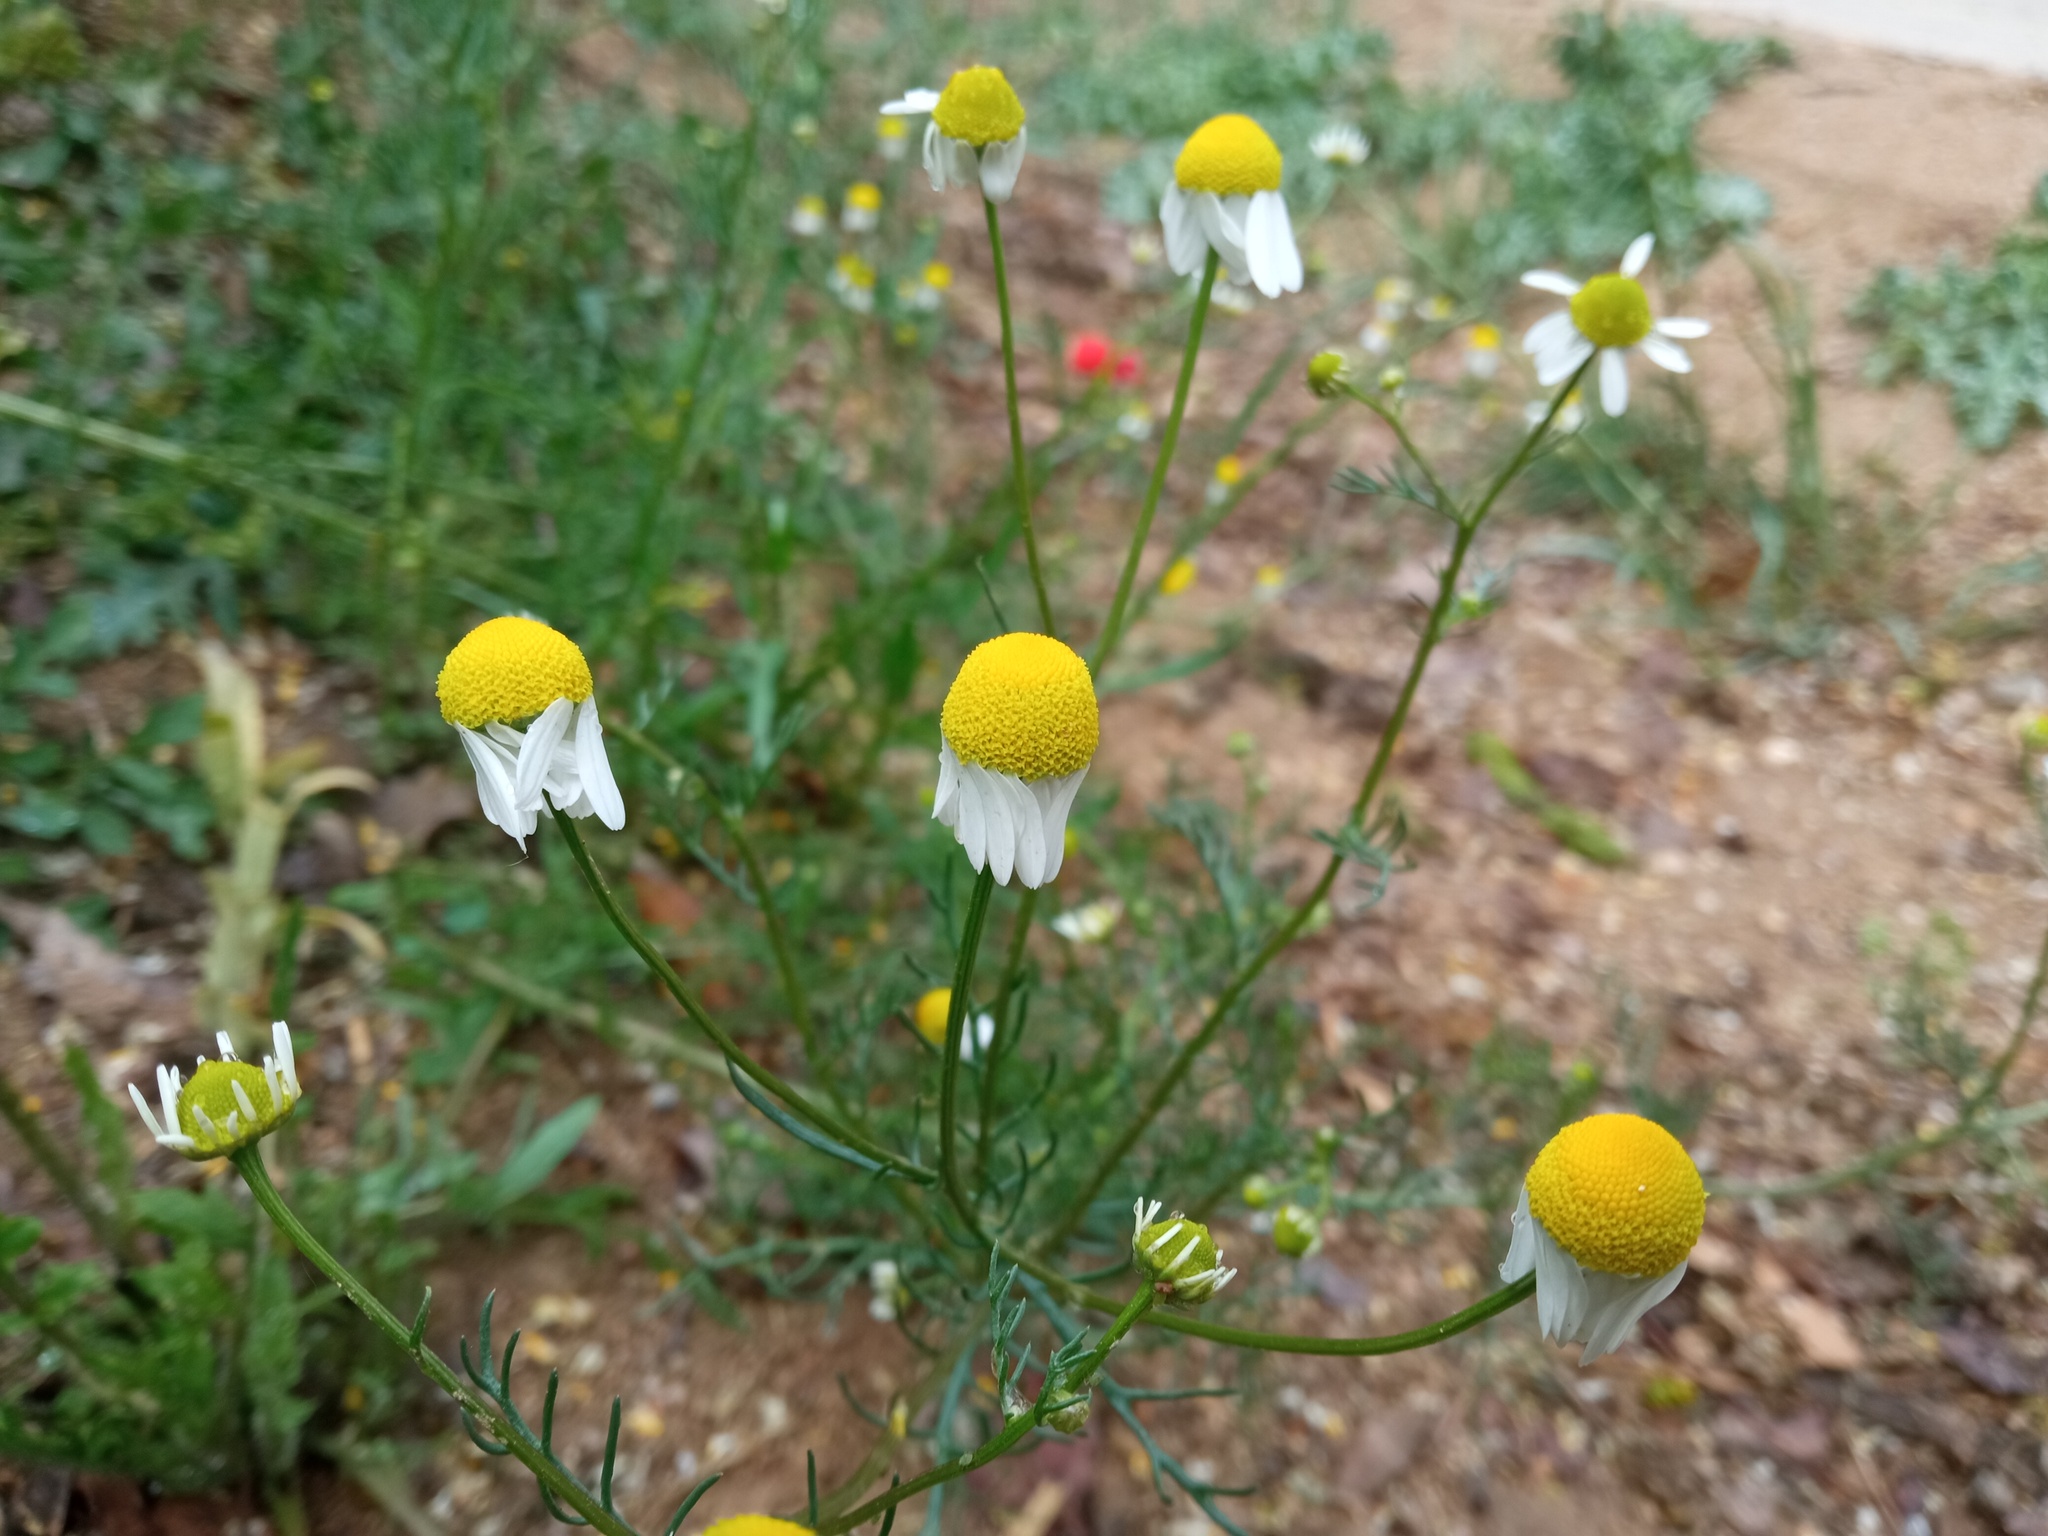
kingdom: Plantae
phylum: Tracheophyta
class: Magnoliopsida
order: Asterales
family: Asteraceae
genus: Matricaria
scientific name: Matricaria chamomilla
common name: Scented mayweed
